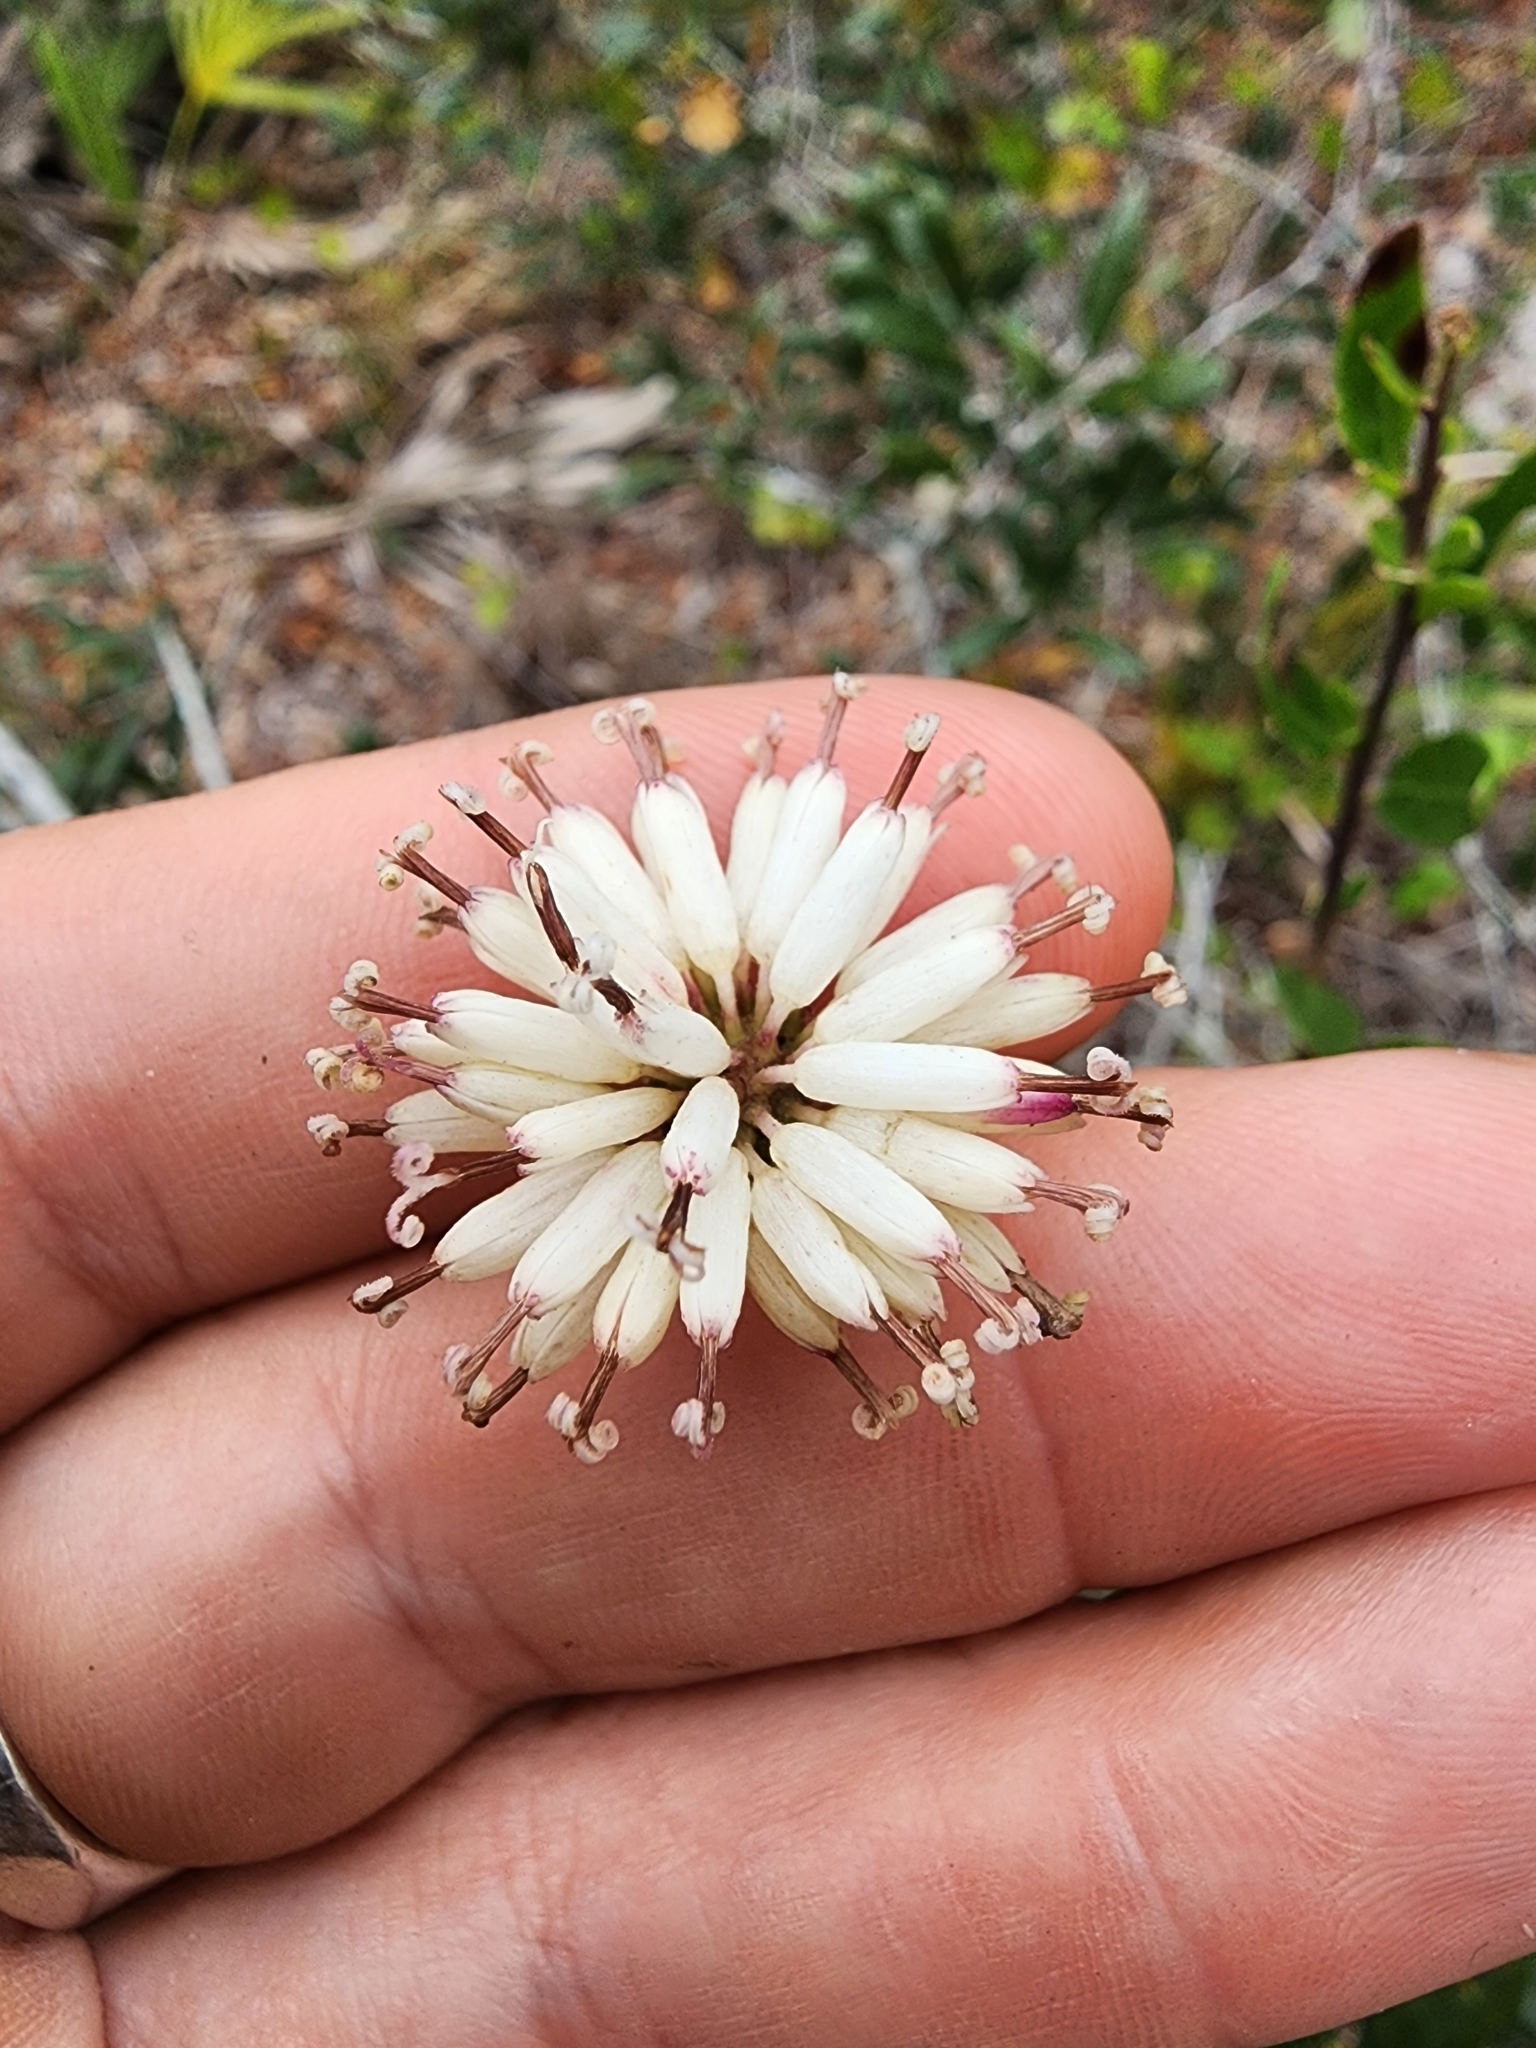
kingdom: Plantae
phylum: Tracheophyta
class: Magnoliopsida
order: Asterales
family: Asteraceae
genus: Palafoxia
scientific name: Palafoxia feayi
